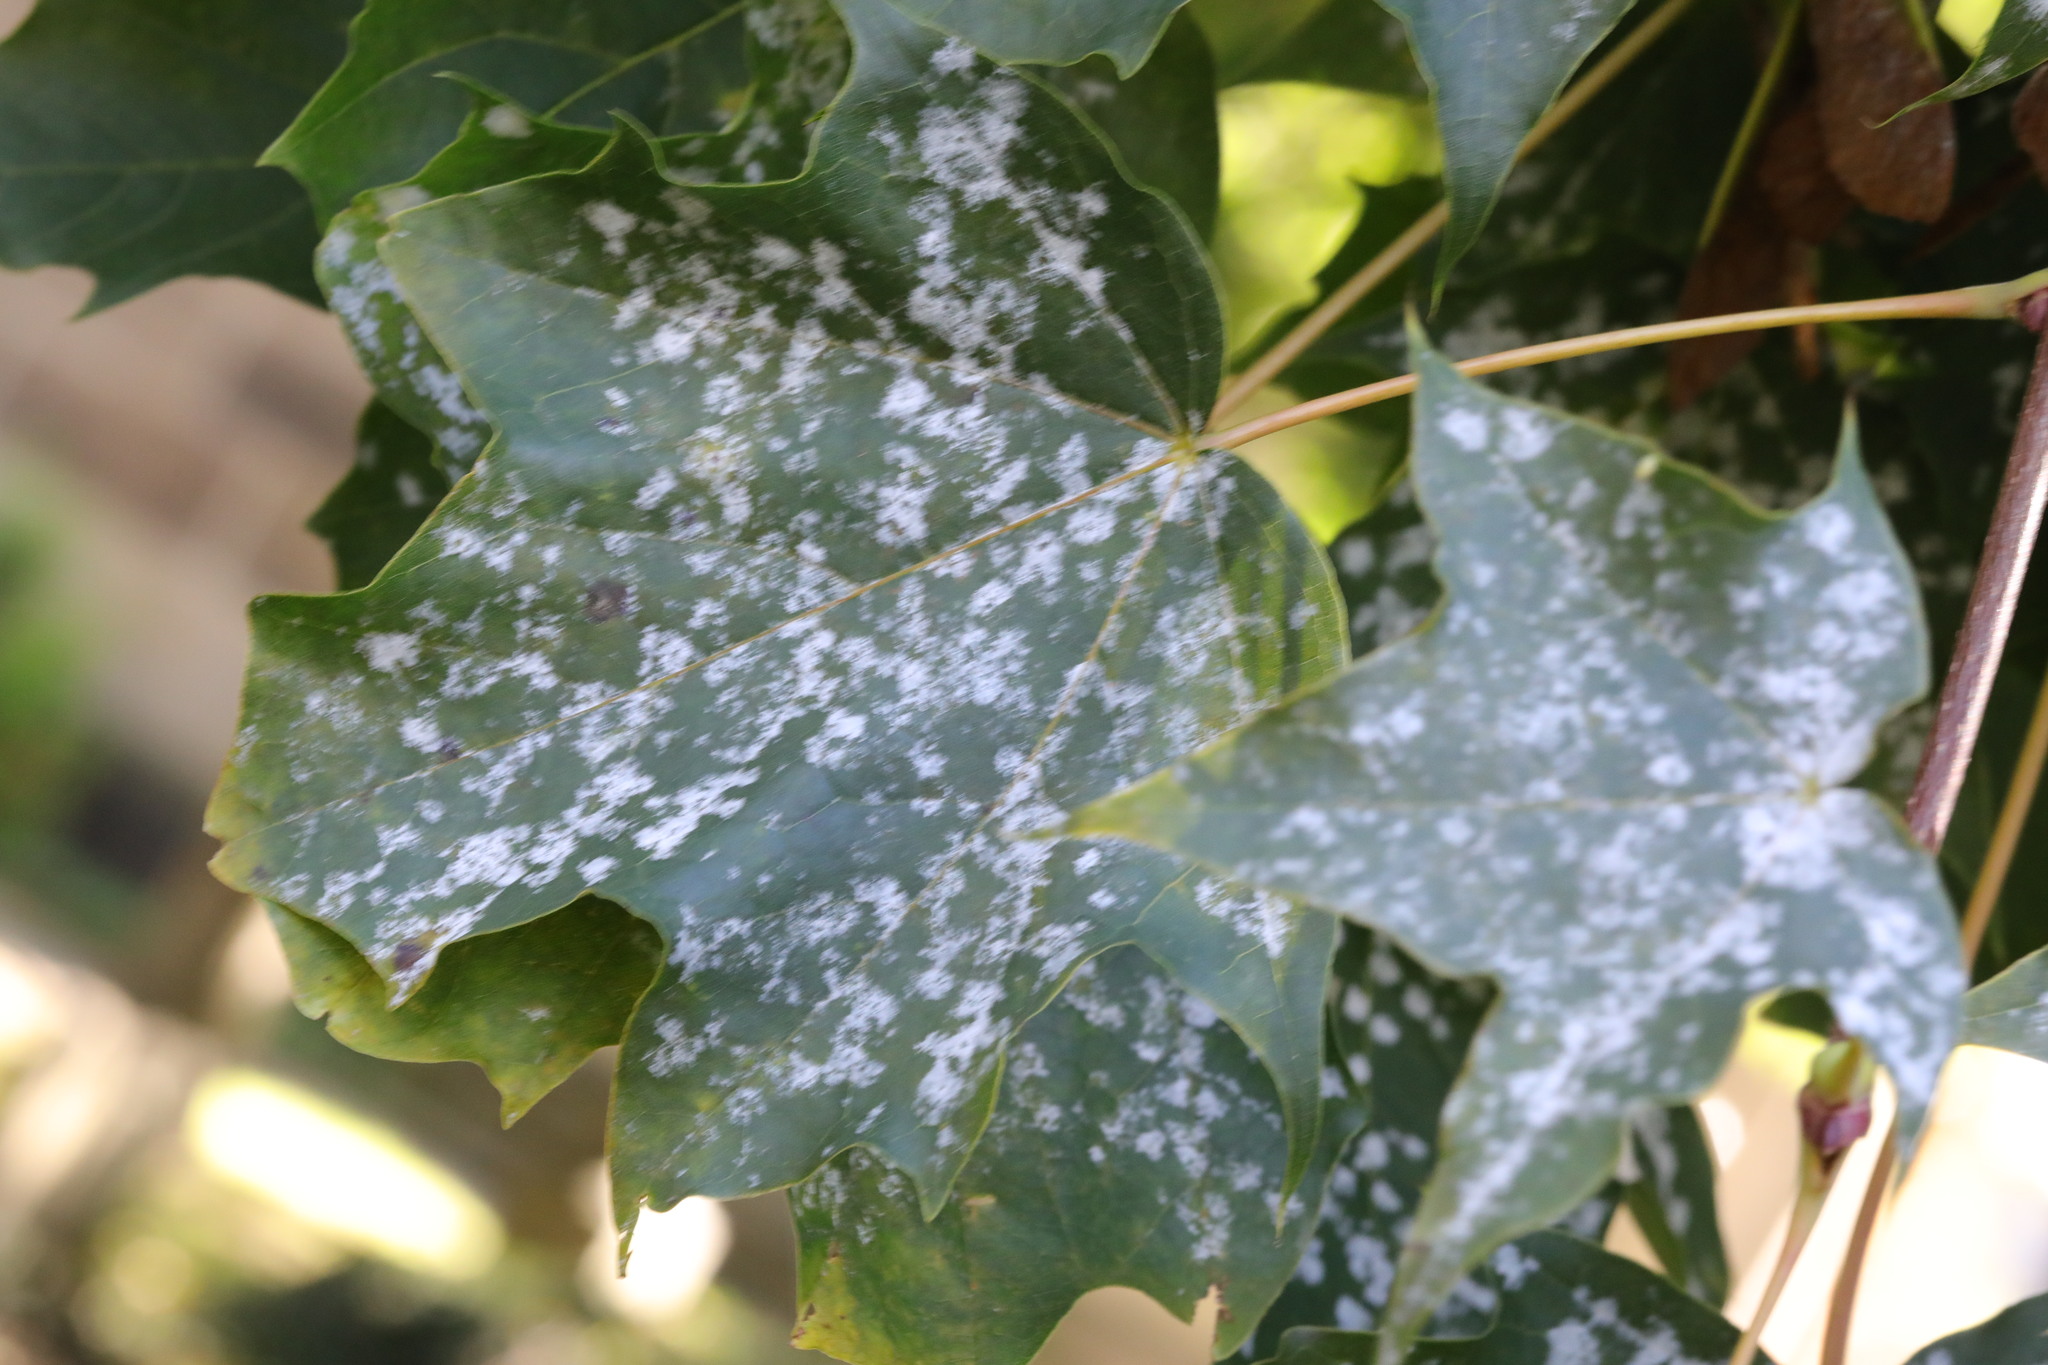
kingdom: Plantae
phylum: Tracheophyta
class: Magnoliopsida
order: Sapindales
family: Sapindaceae
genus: Acer
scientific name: Acer platanoides
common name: Norway maple
